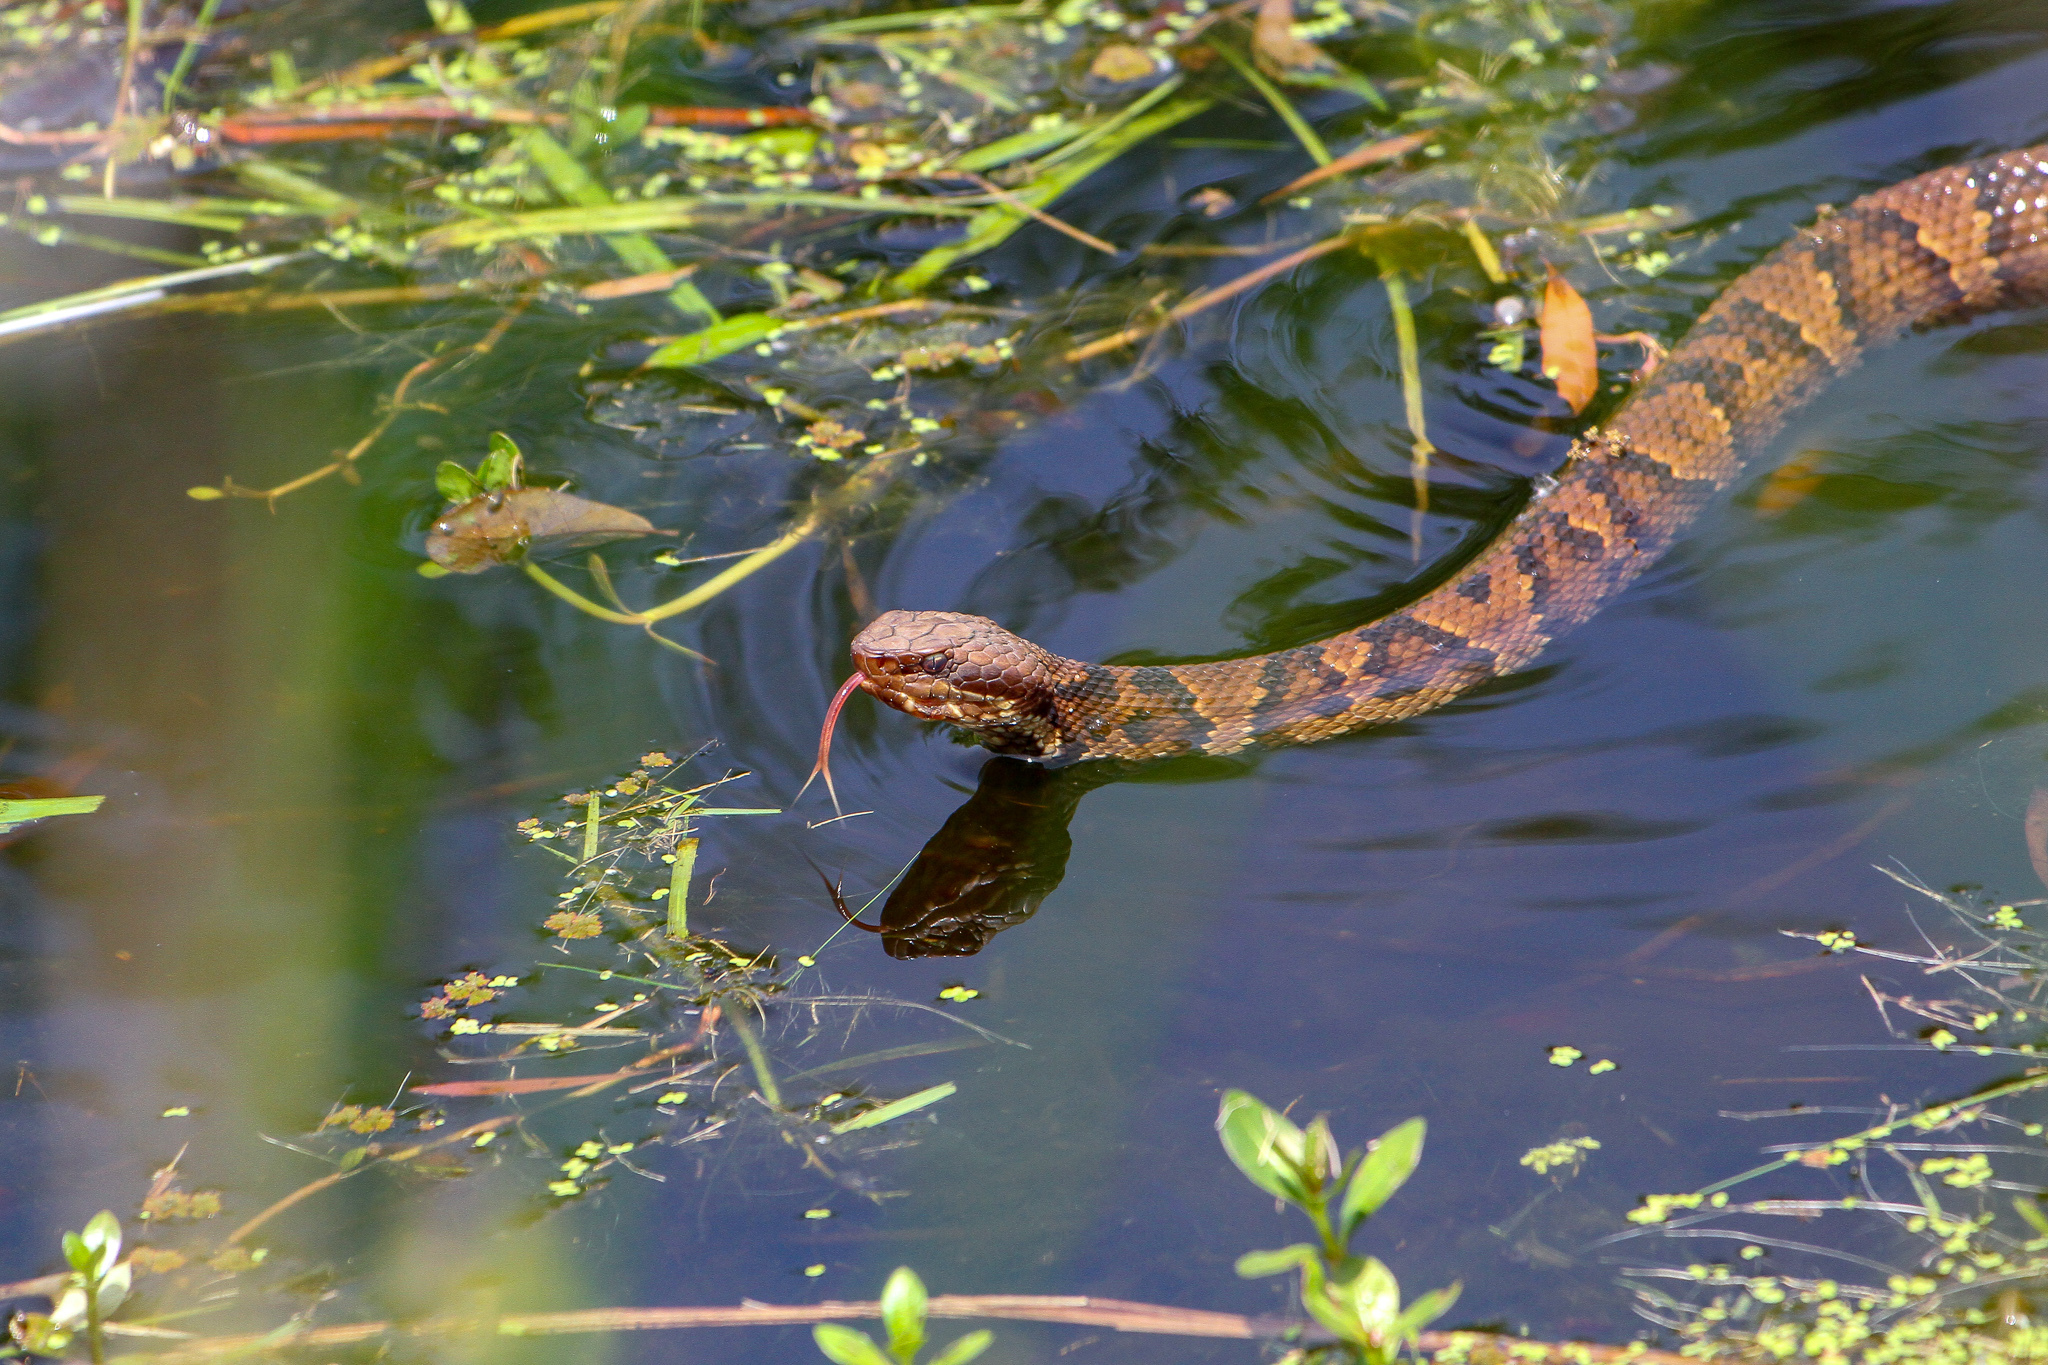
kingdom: Animalia
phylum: Chordata
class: Squamata
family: Viperidae
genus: Agkistrodon
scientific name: Agkistrodon piscivorus
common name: Cottonmouth
